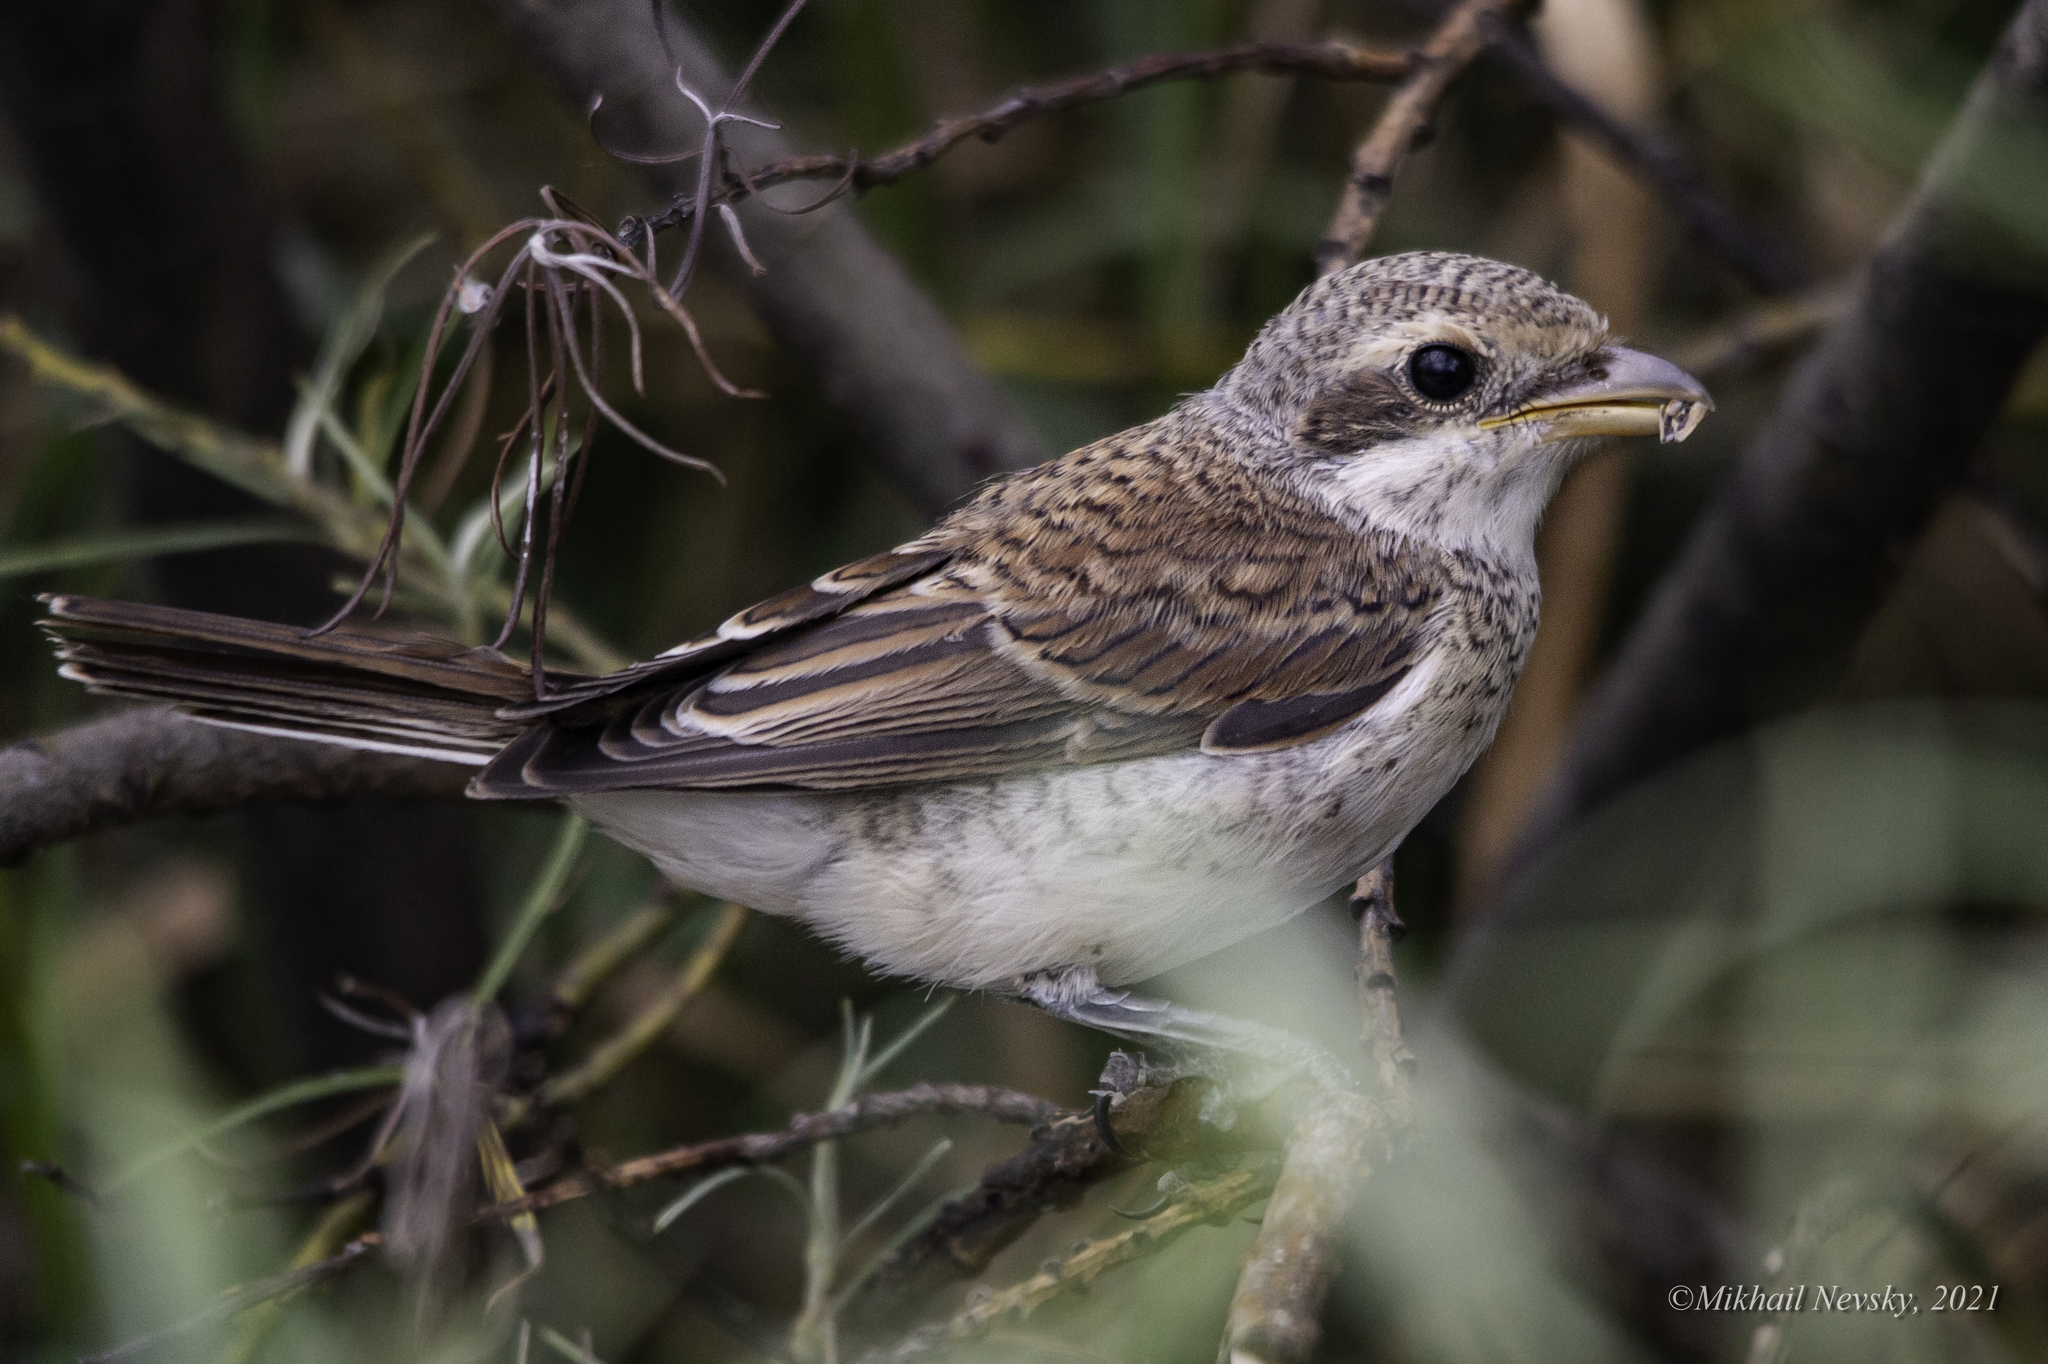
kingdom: Animalia
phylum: Chordata
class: Aves
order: Passeriformes
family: Laniidae
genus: Lanius
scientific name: Lanius collurio
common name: Red-backed shrike
